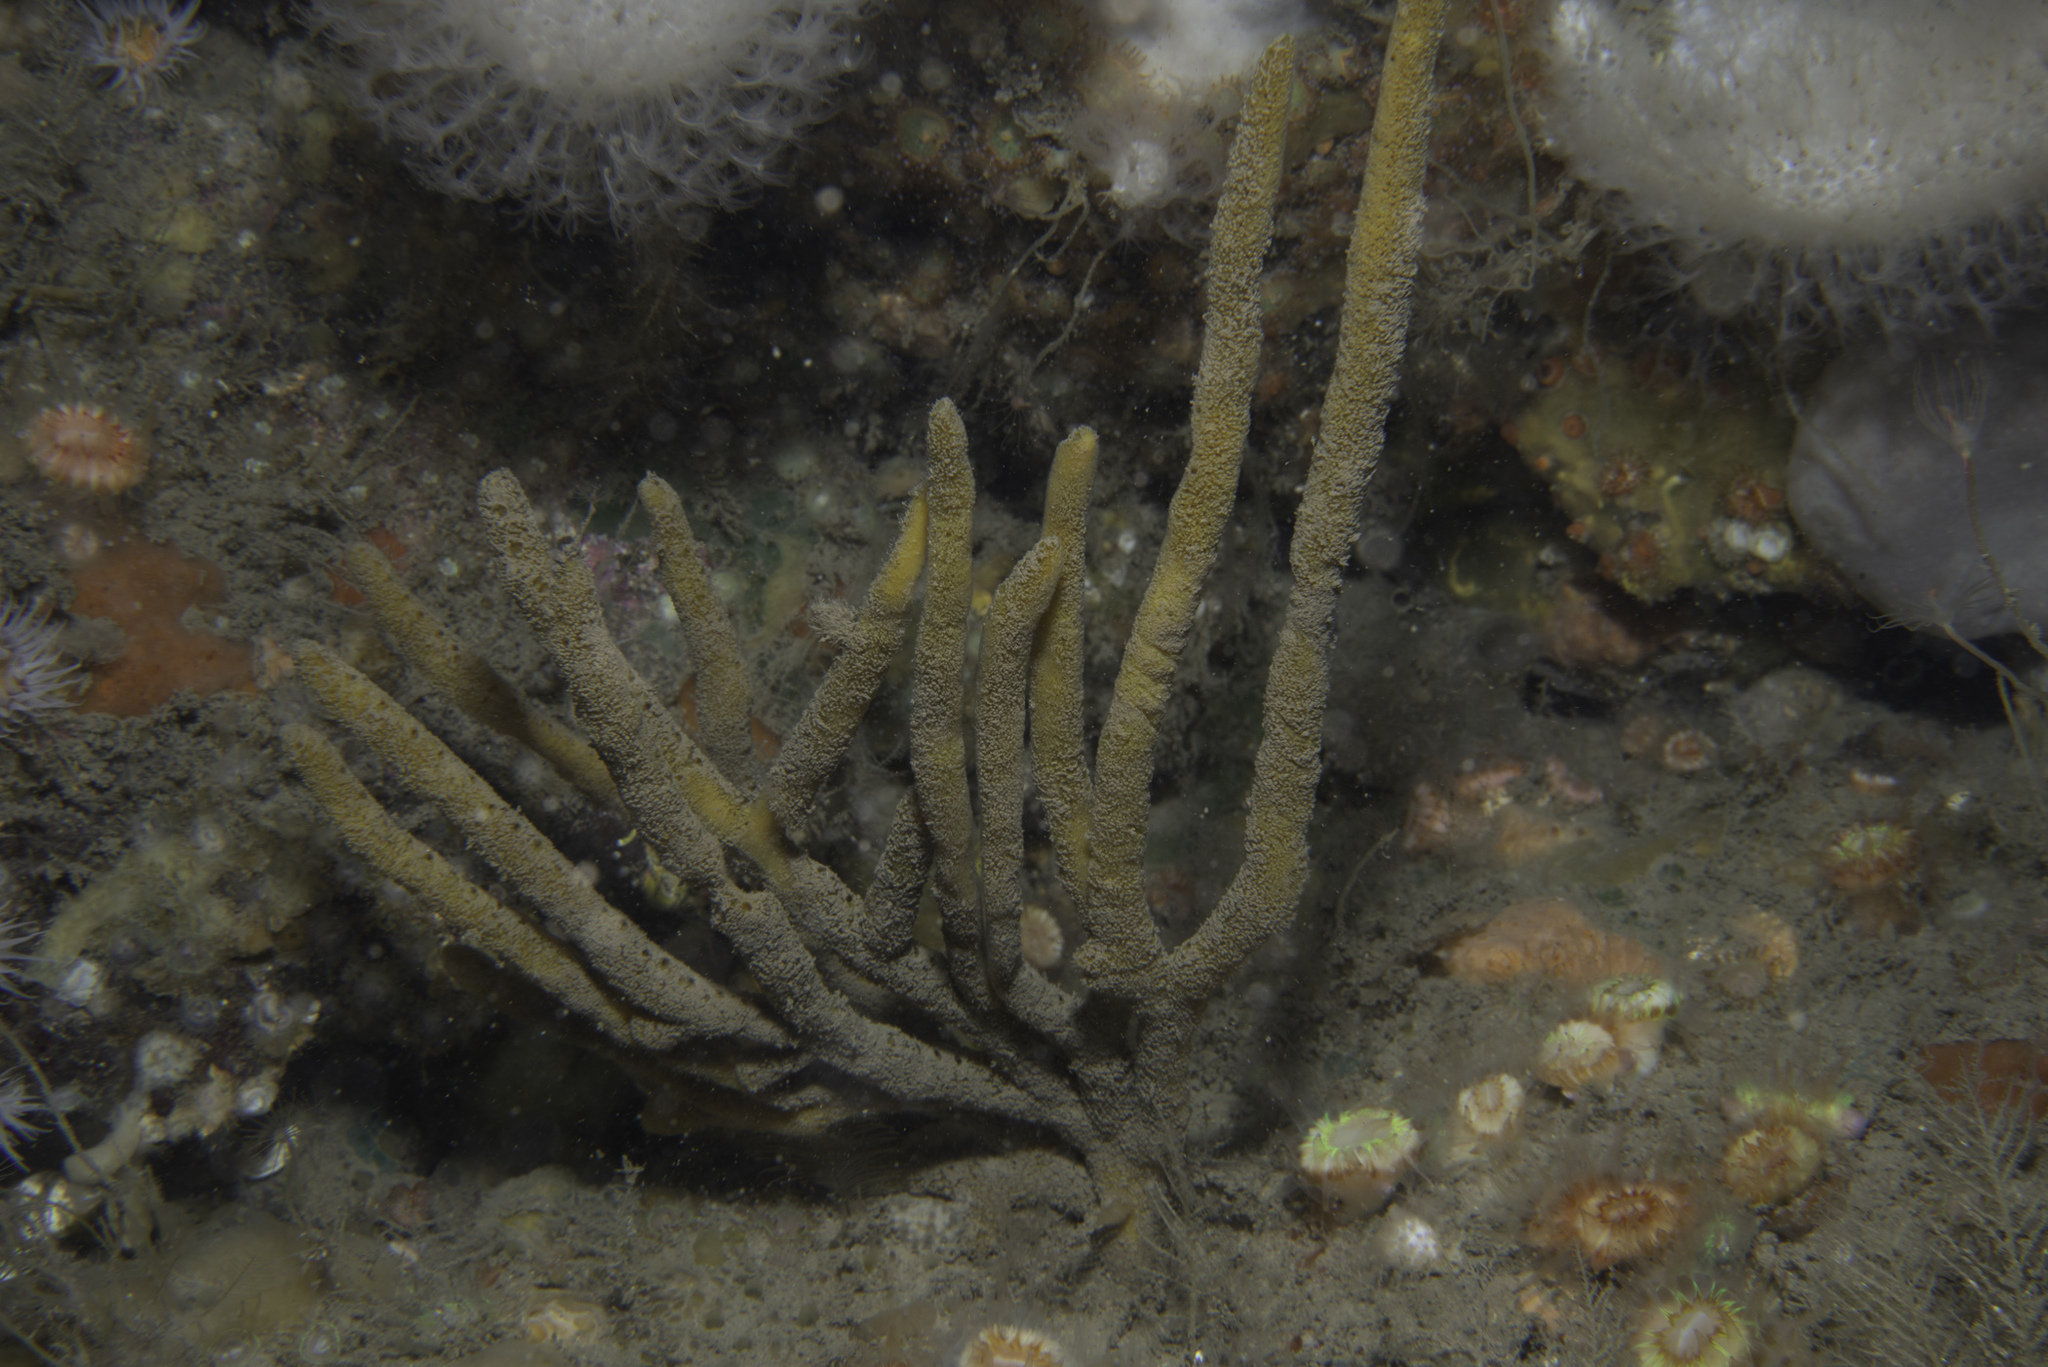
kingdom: Animalia
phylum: Porifera
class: Demospongiae
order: Axinellida
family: Raspailiidae
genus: Raspailia
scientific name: Raspailia hispida
